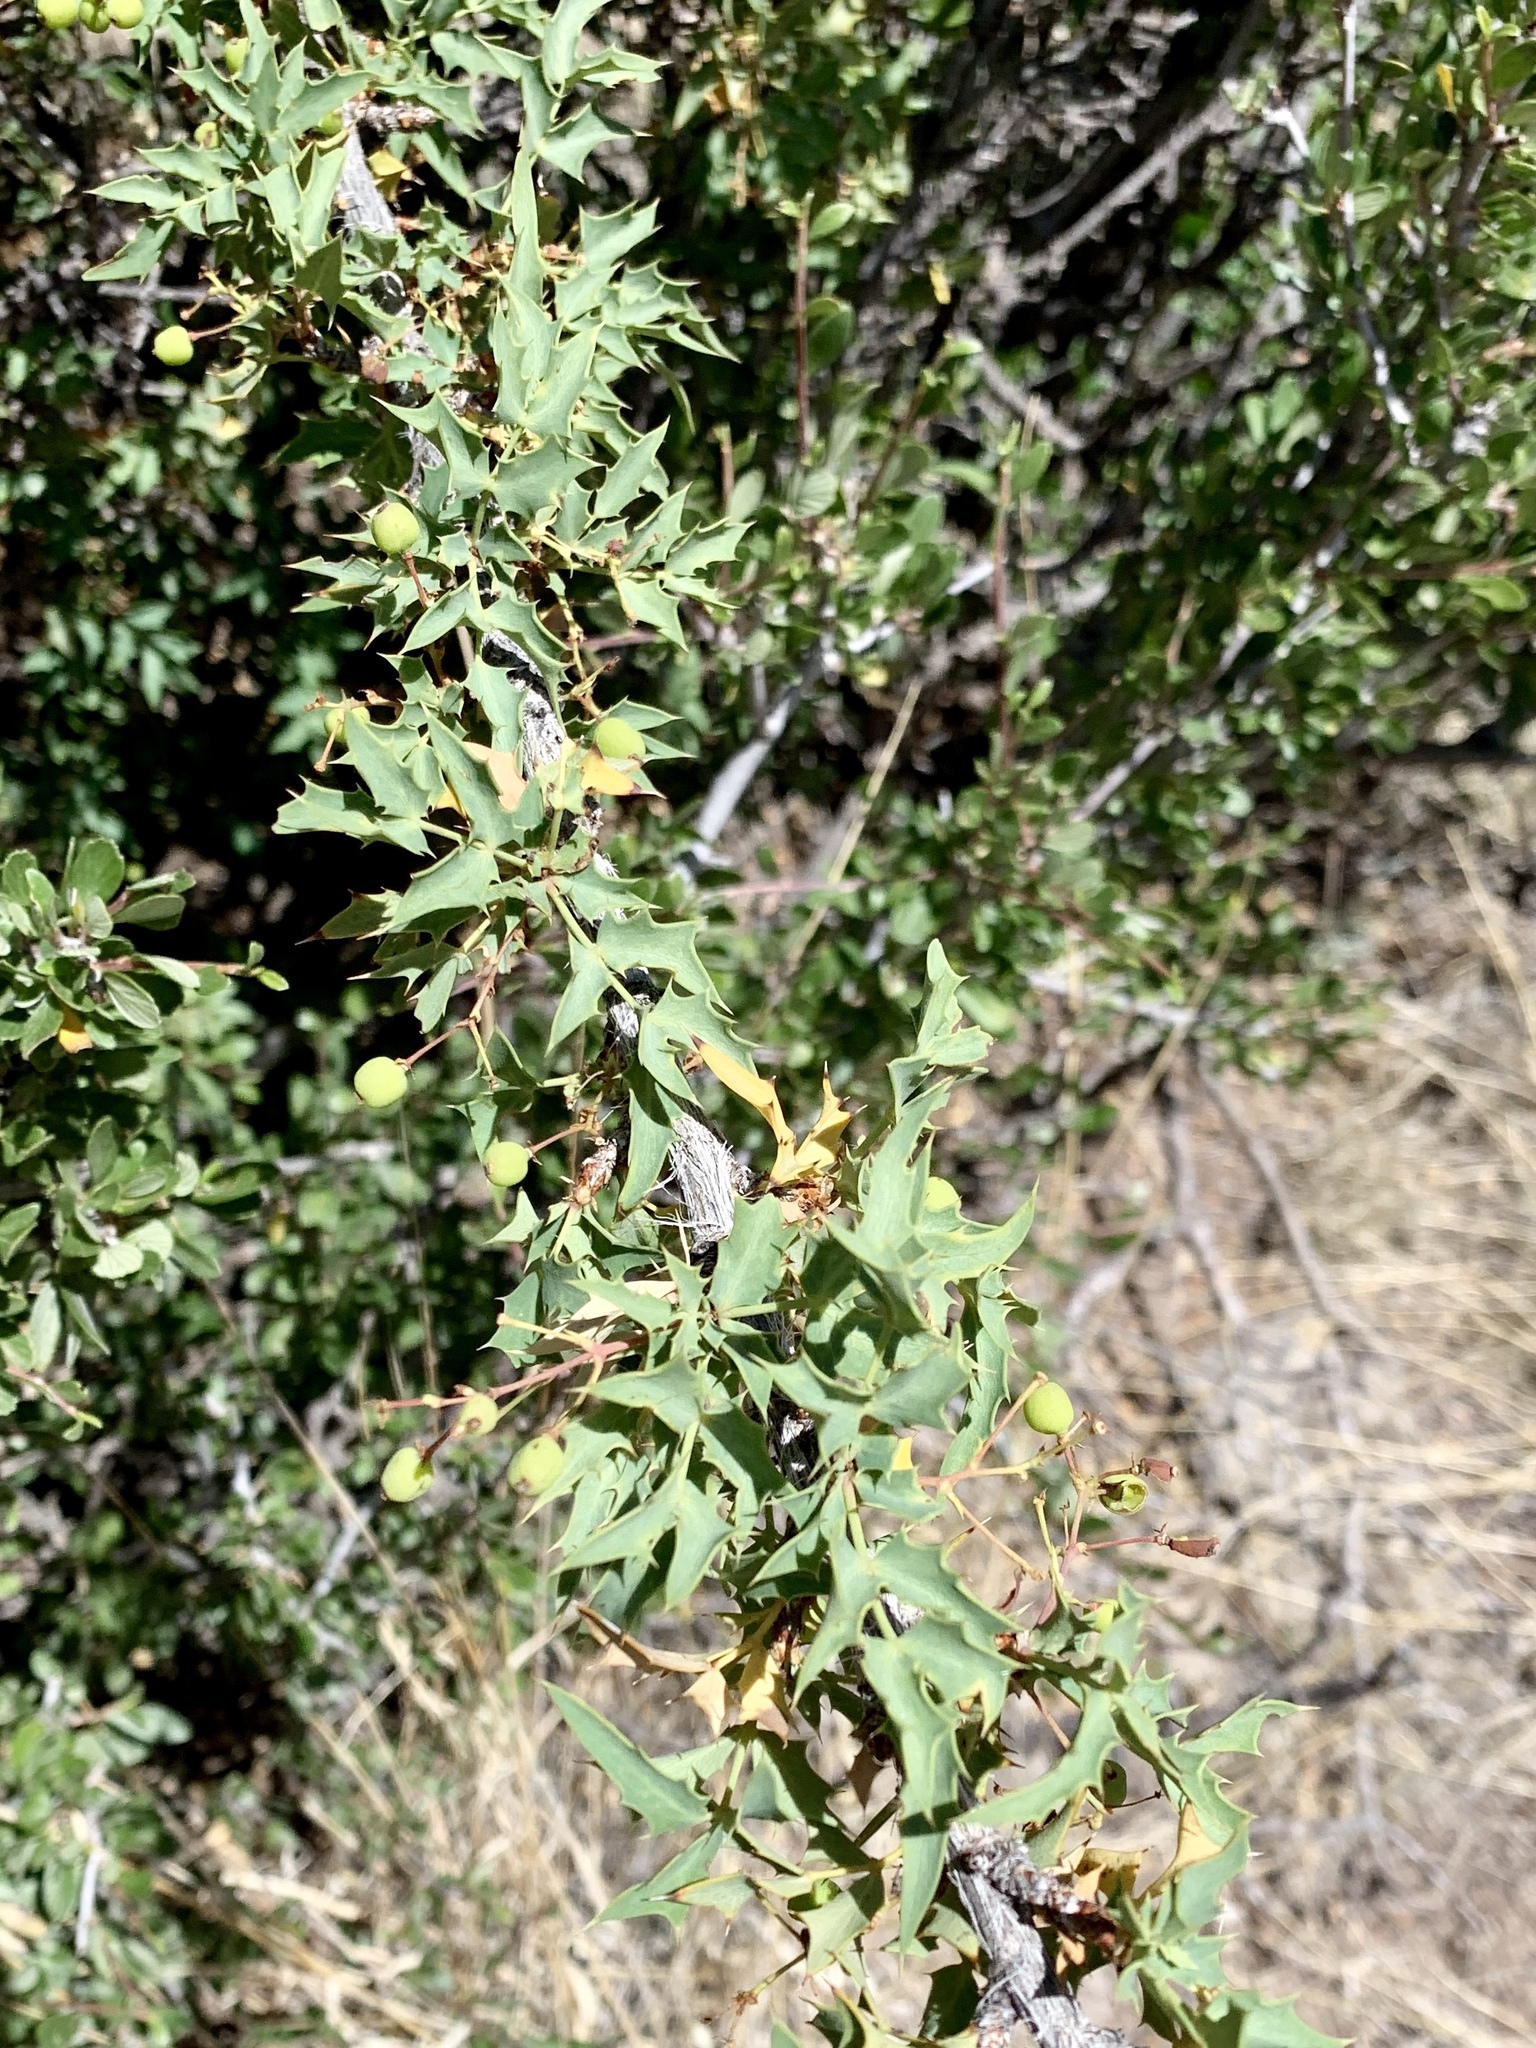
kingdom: Plantae
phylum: Tracheophyta
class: Magnoliopsida
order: Ranunculales
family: Berberidaceae
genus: Alloberberis
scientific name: Alloberberis haematocarpa
